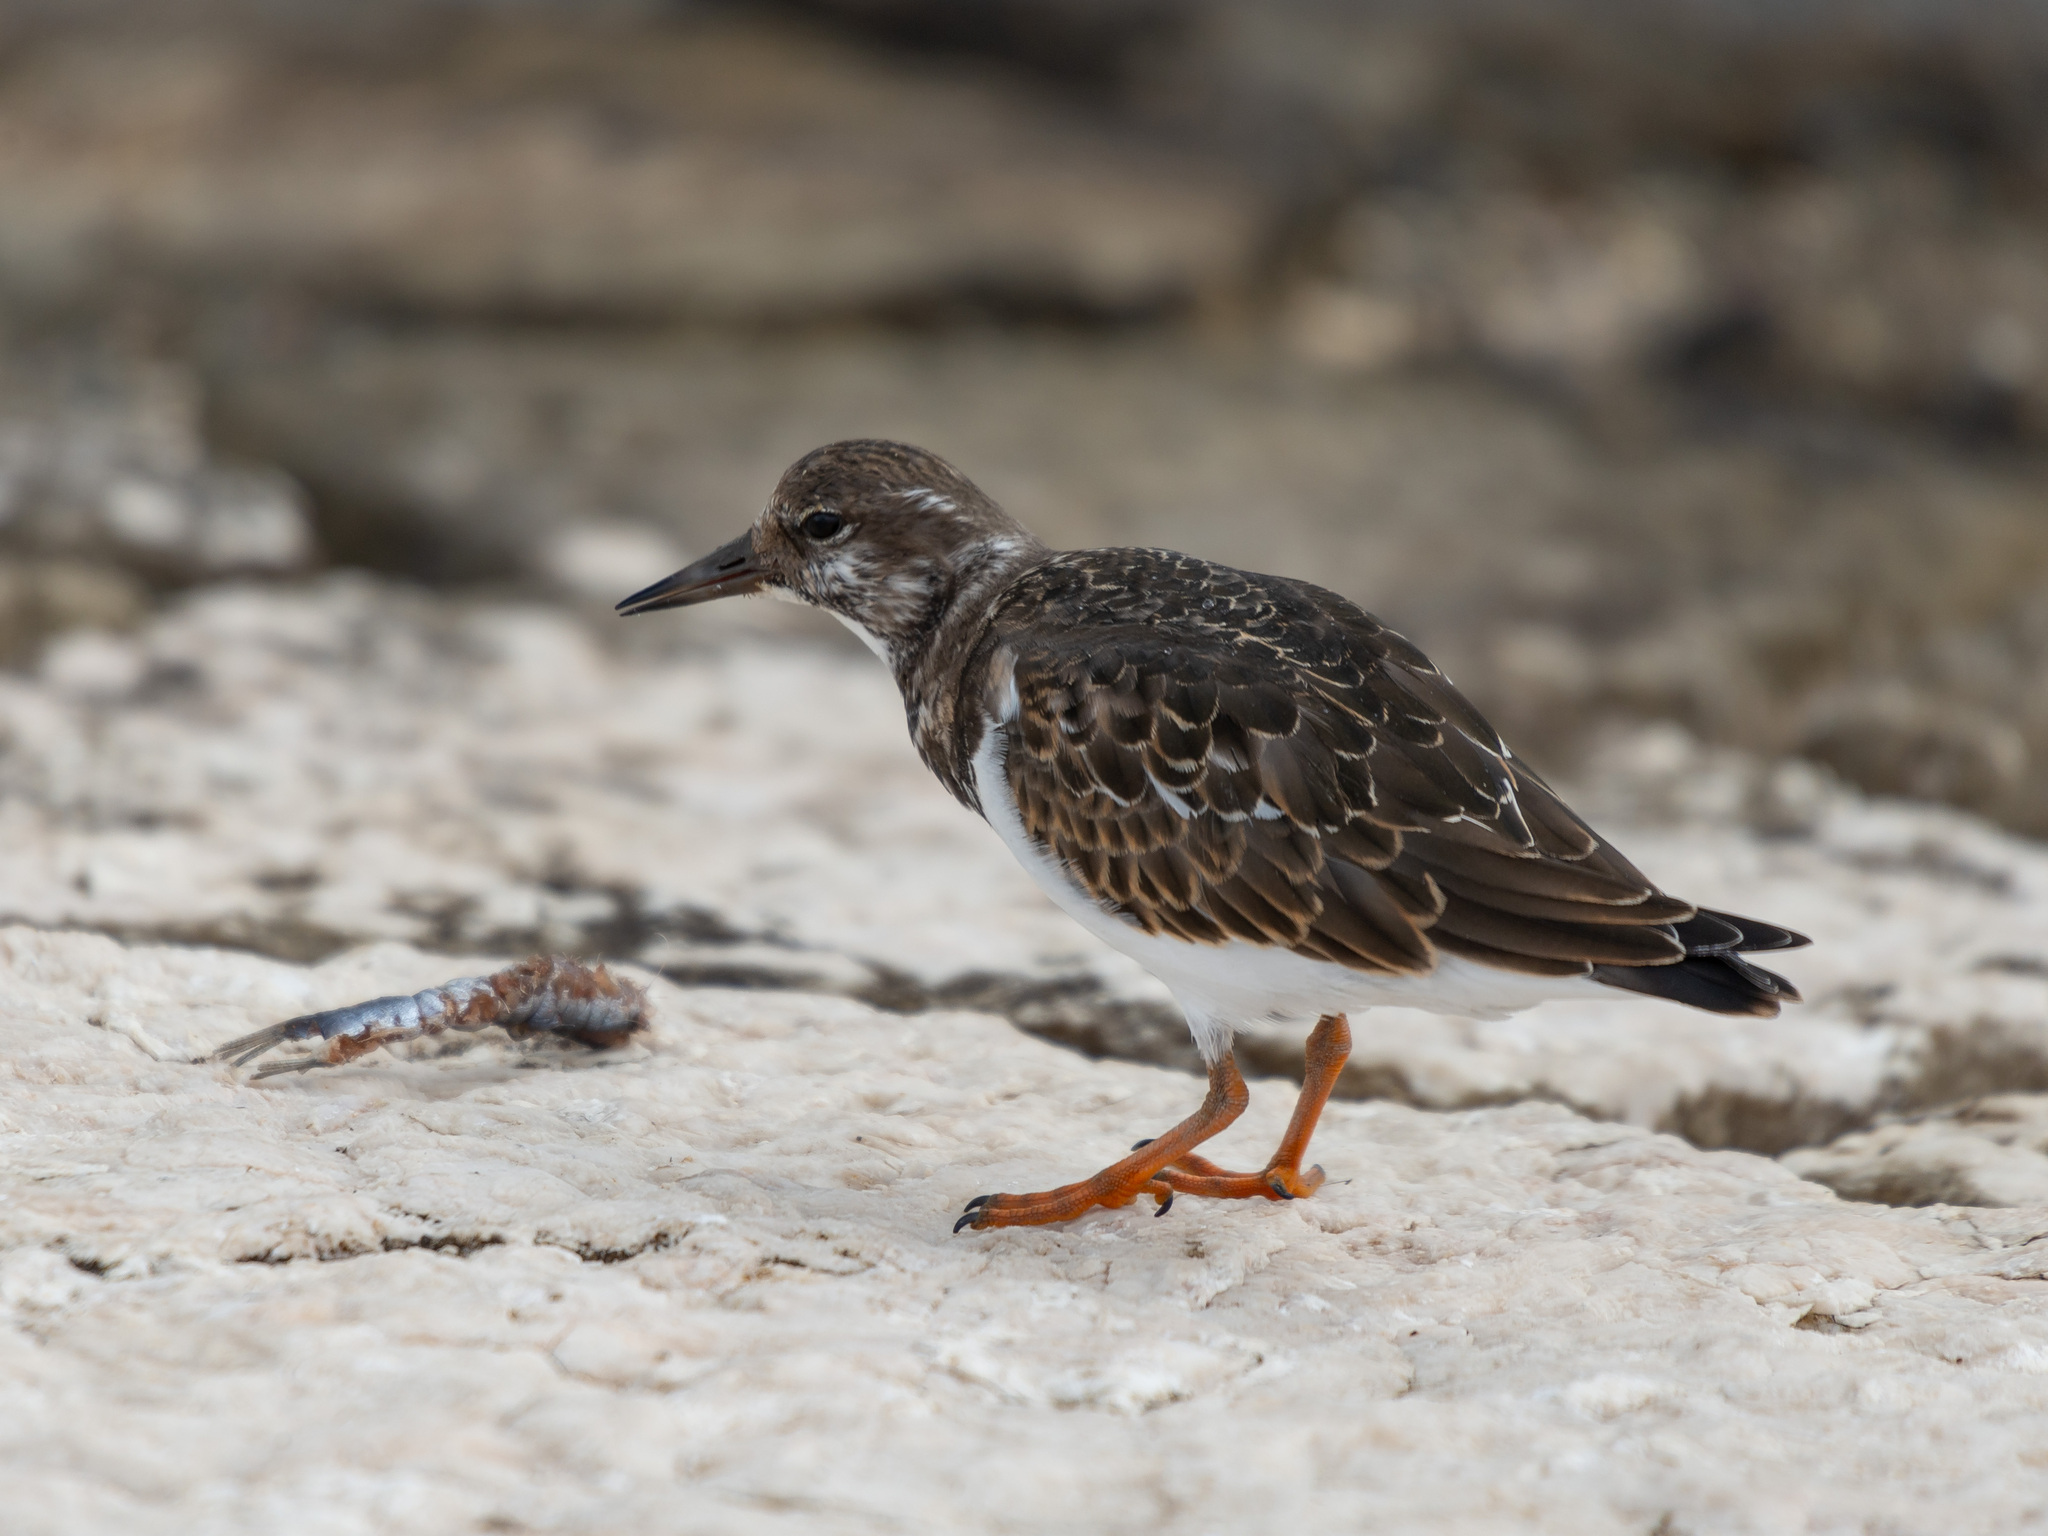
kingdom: Animalia
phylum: Chordata
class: Aves
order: Charadriiformes
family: Scolopacidae
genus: Arenaria
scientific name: Arenaria interpres
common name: Ruddy turnstone
